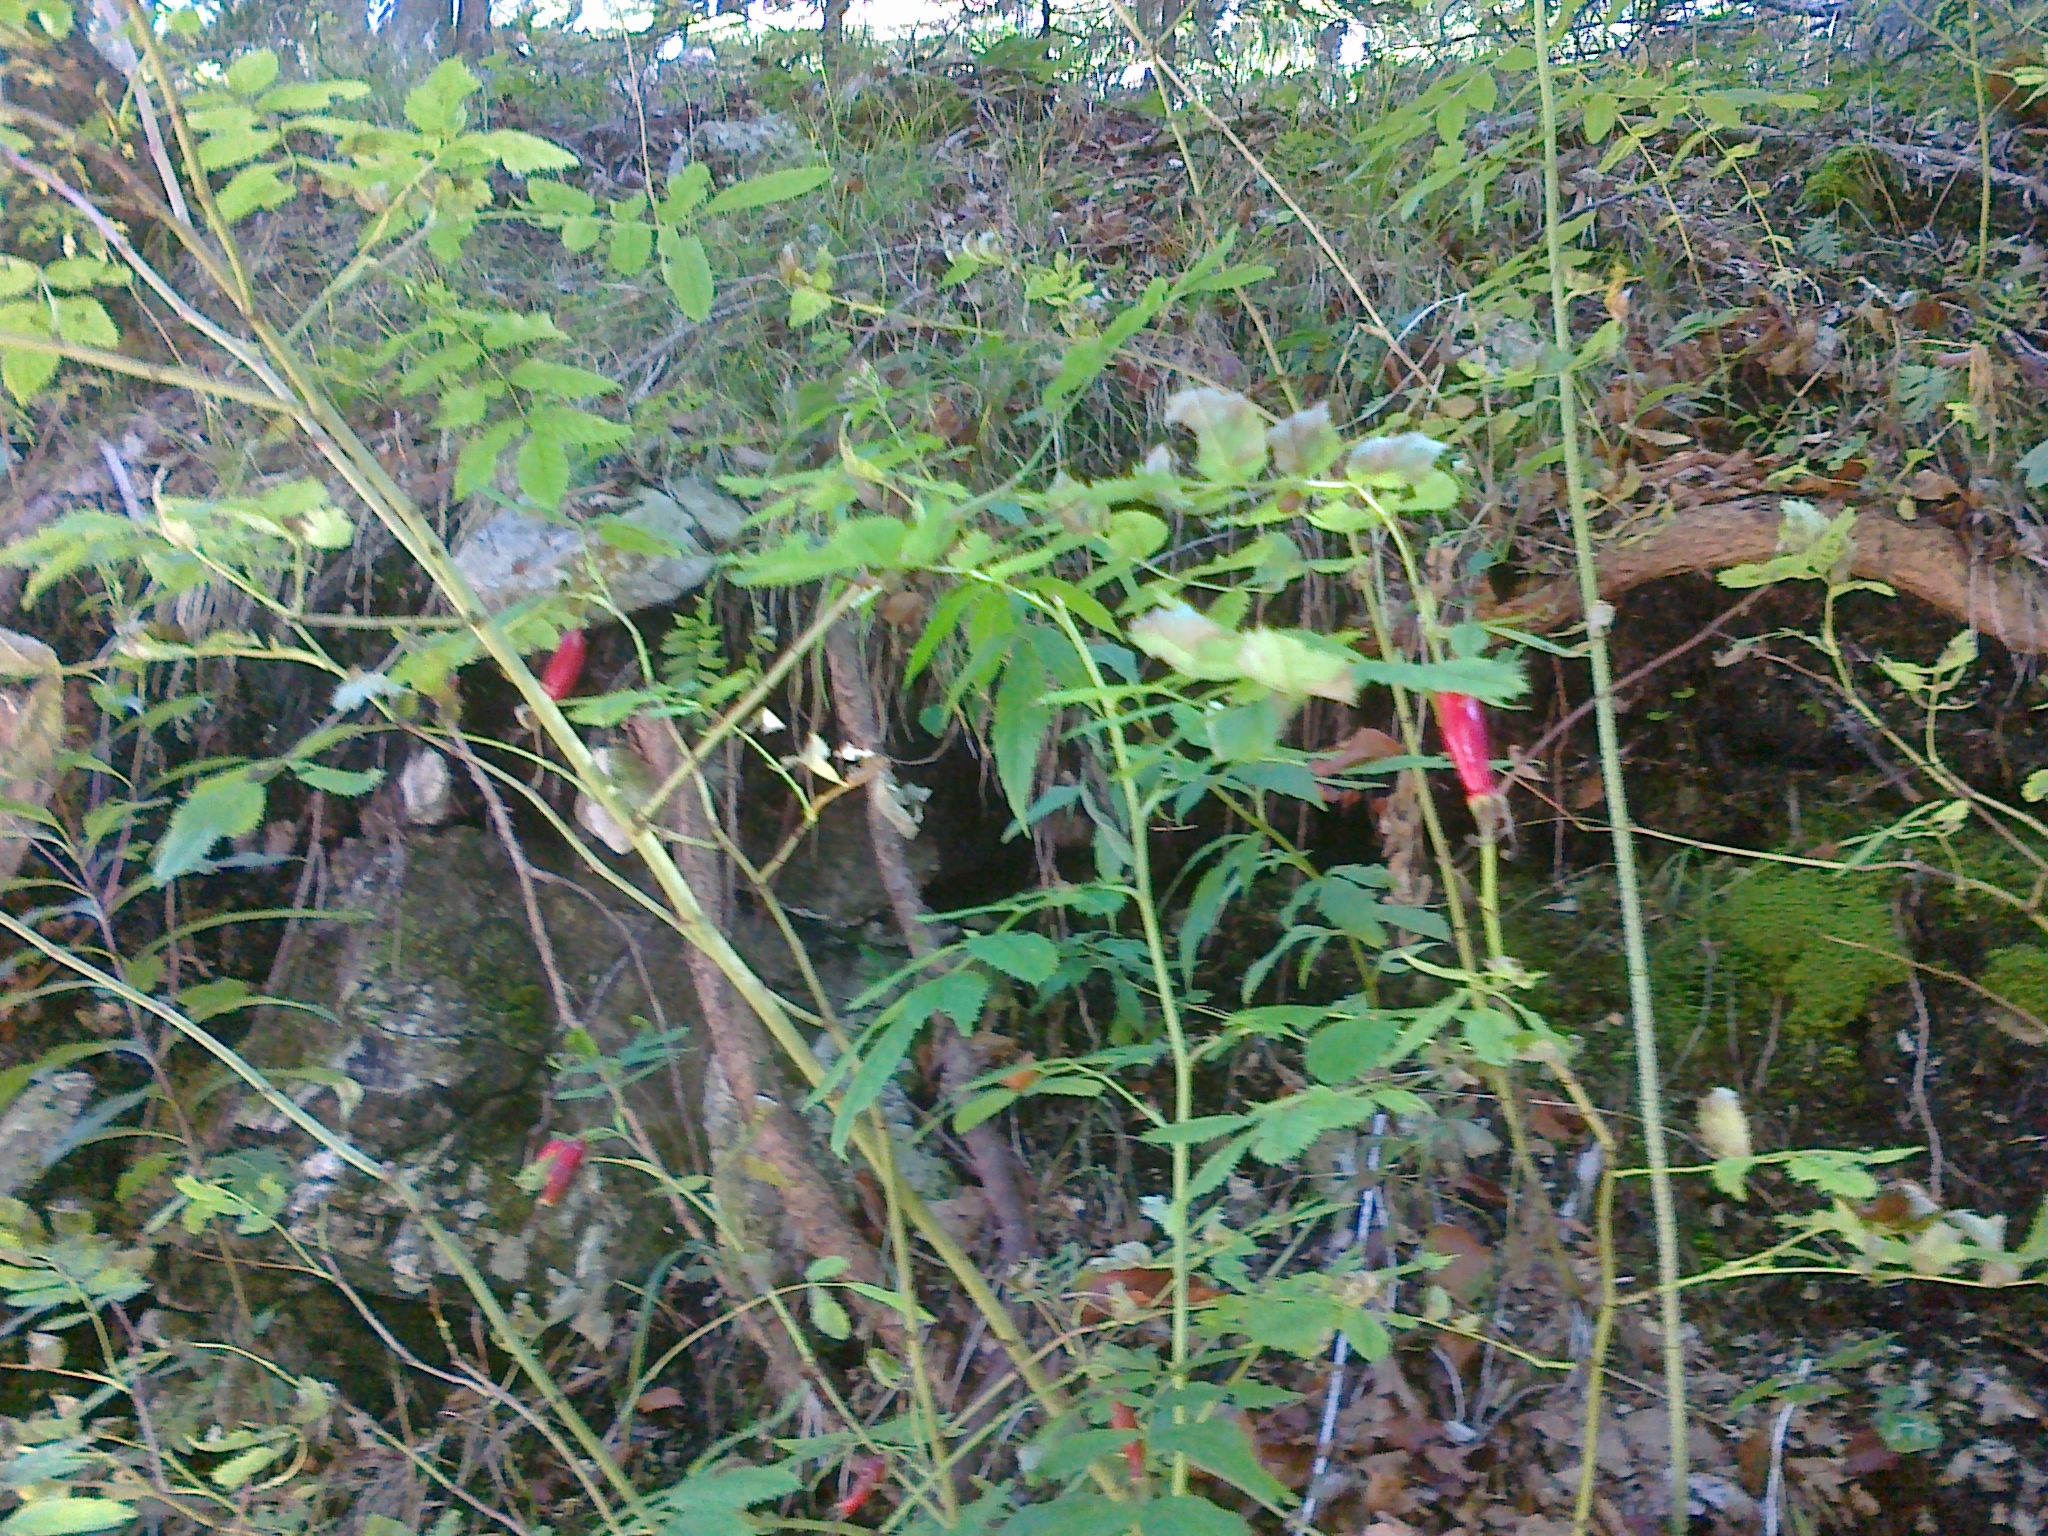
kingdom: Plantae
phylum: Tracheophyta
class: Magnoliopsida
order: Rosales
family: Rosaceae
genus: Rosa
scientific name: Rosa pendulina
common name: Alpine rose
